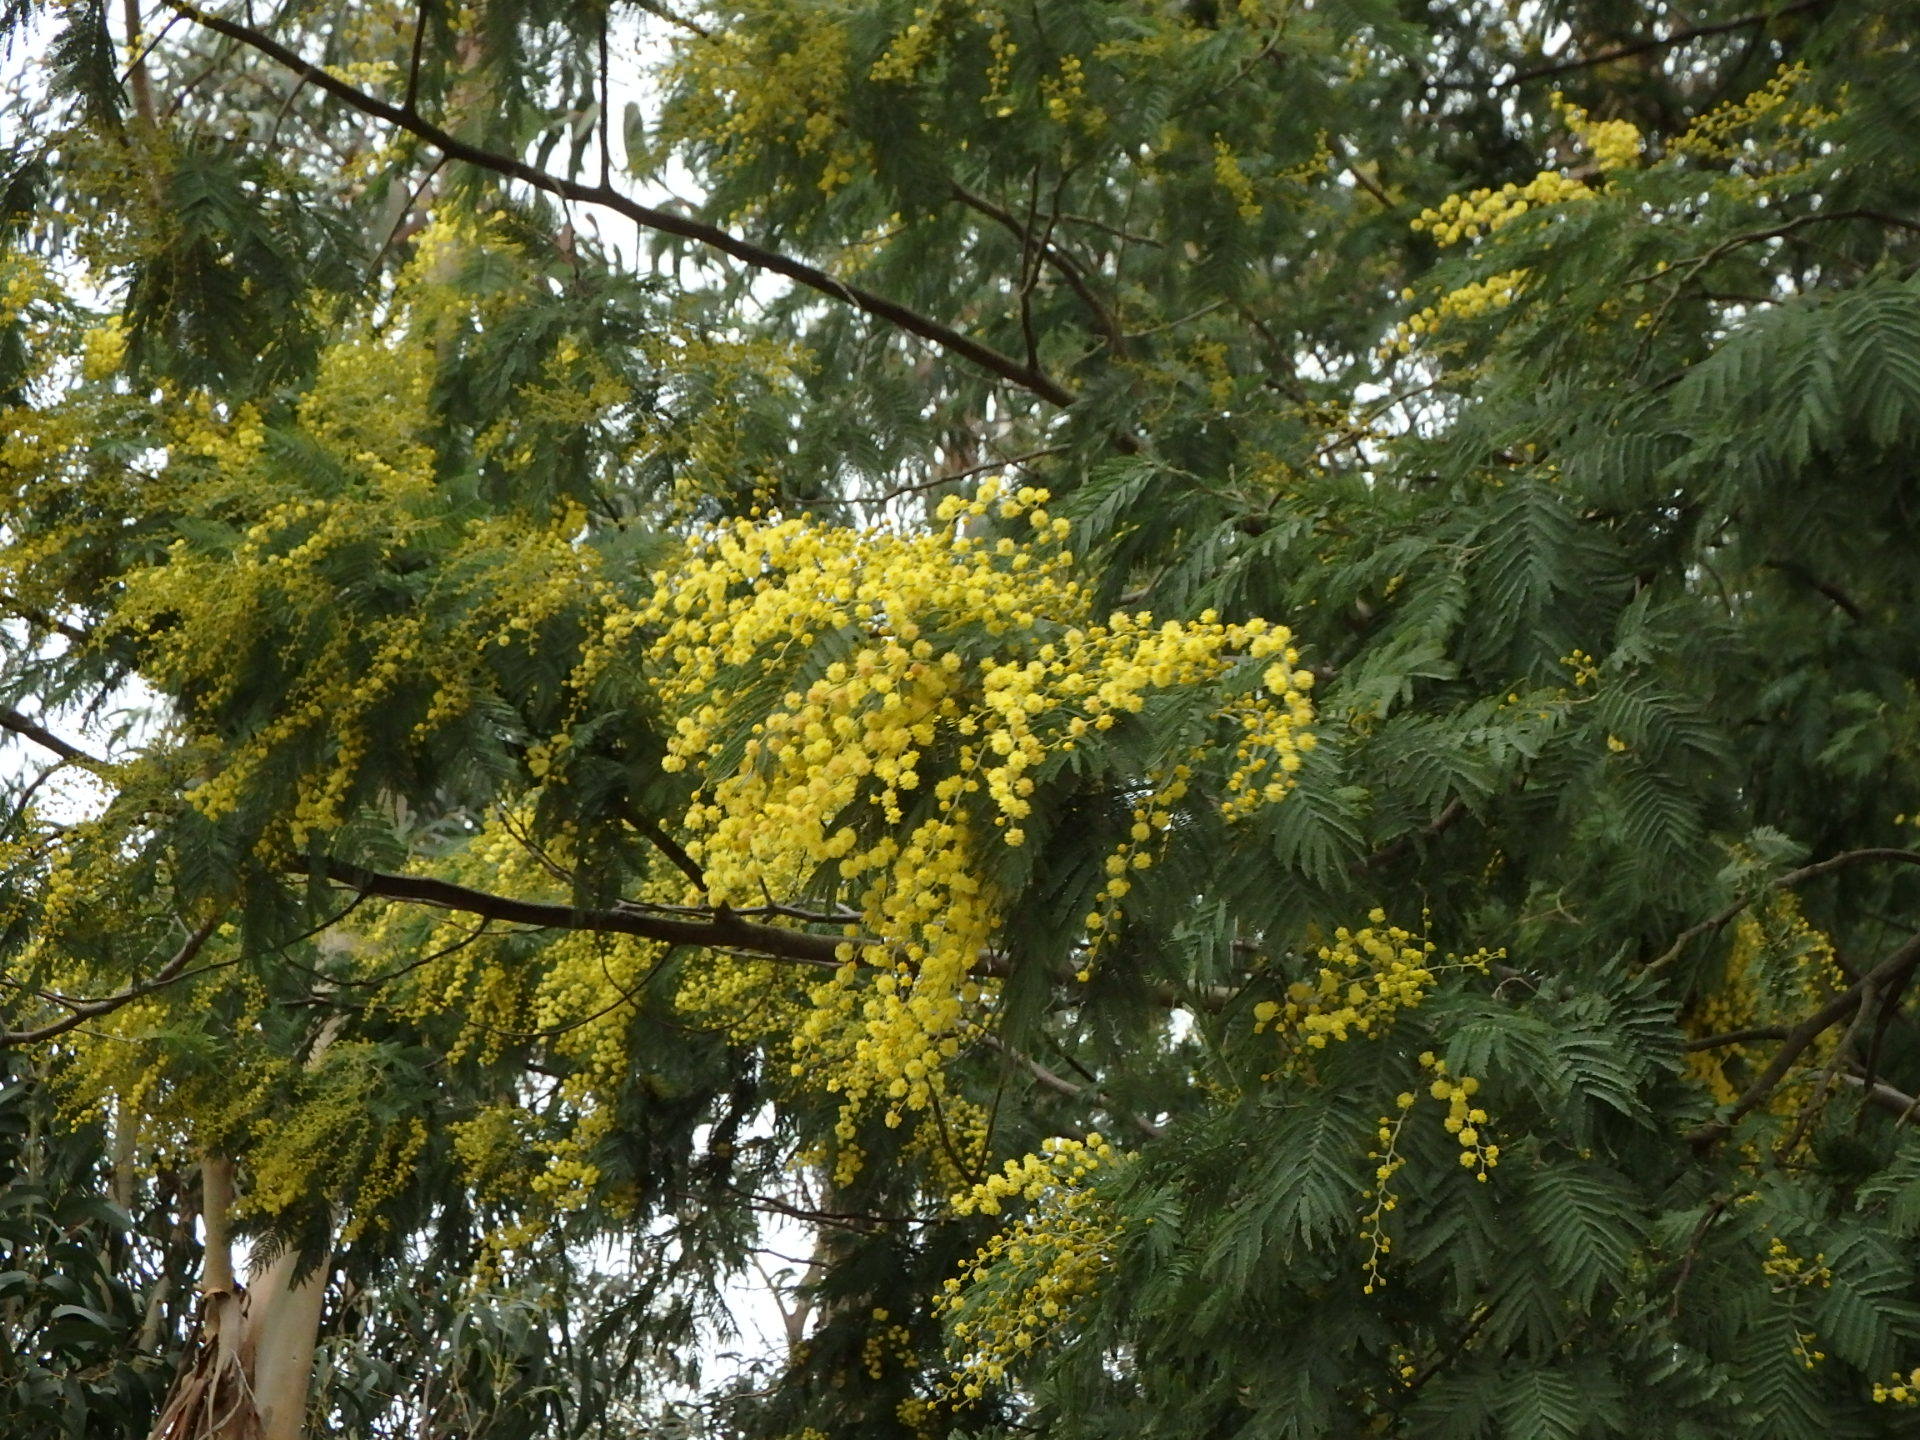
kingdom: Plantae
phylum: Tracheophyta
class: Magnoliopsida
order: Fabales
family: Fabaceae
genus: Acacia
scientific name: Acacia dealbata
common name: Silver wattle
